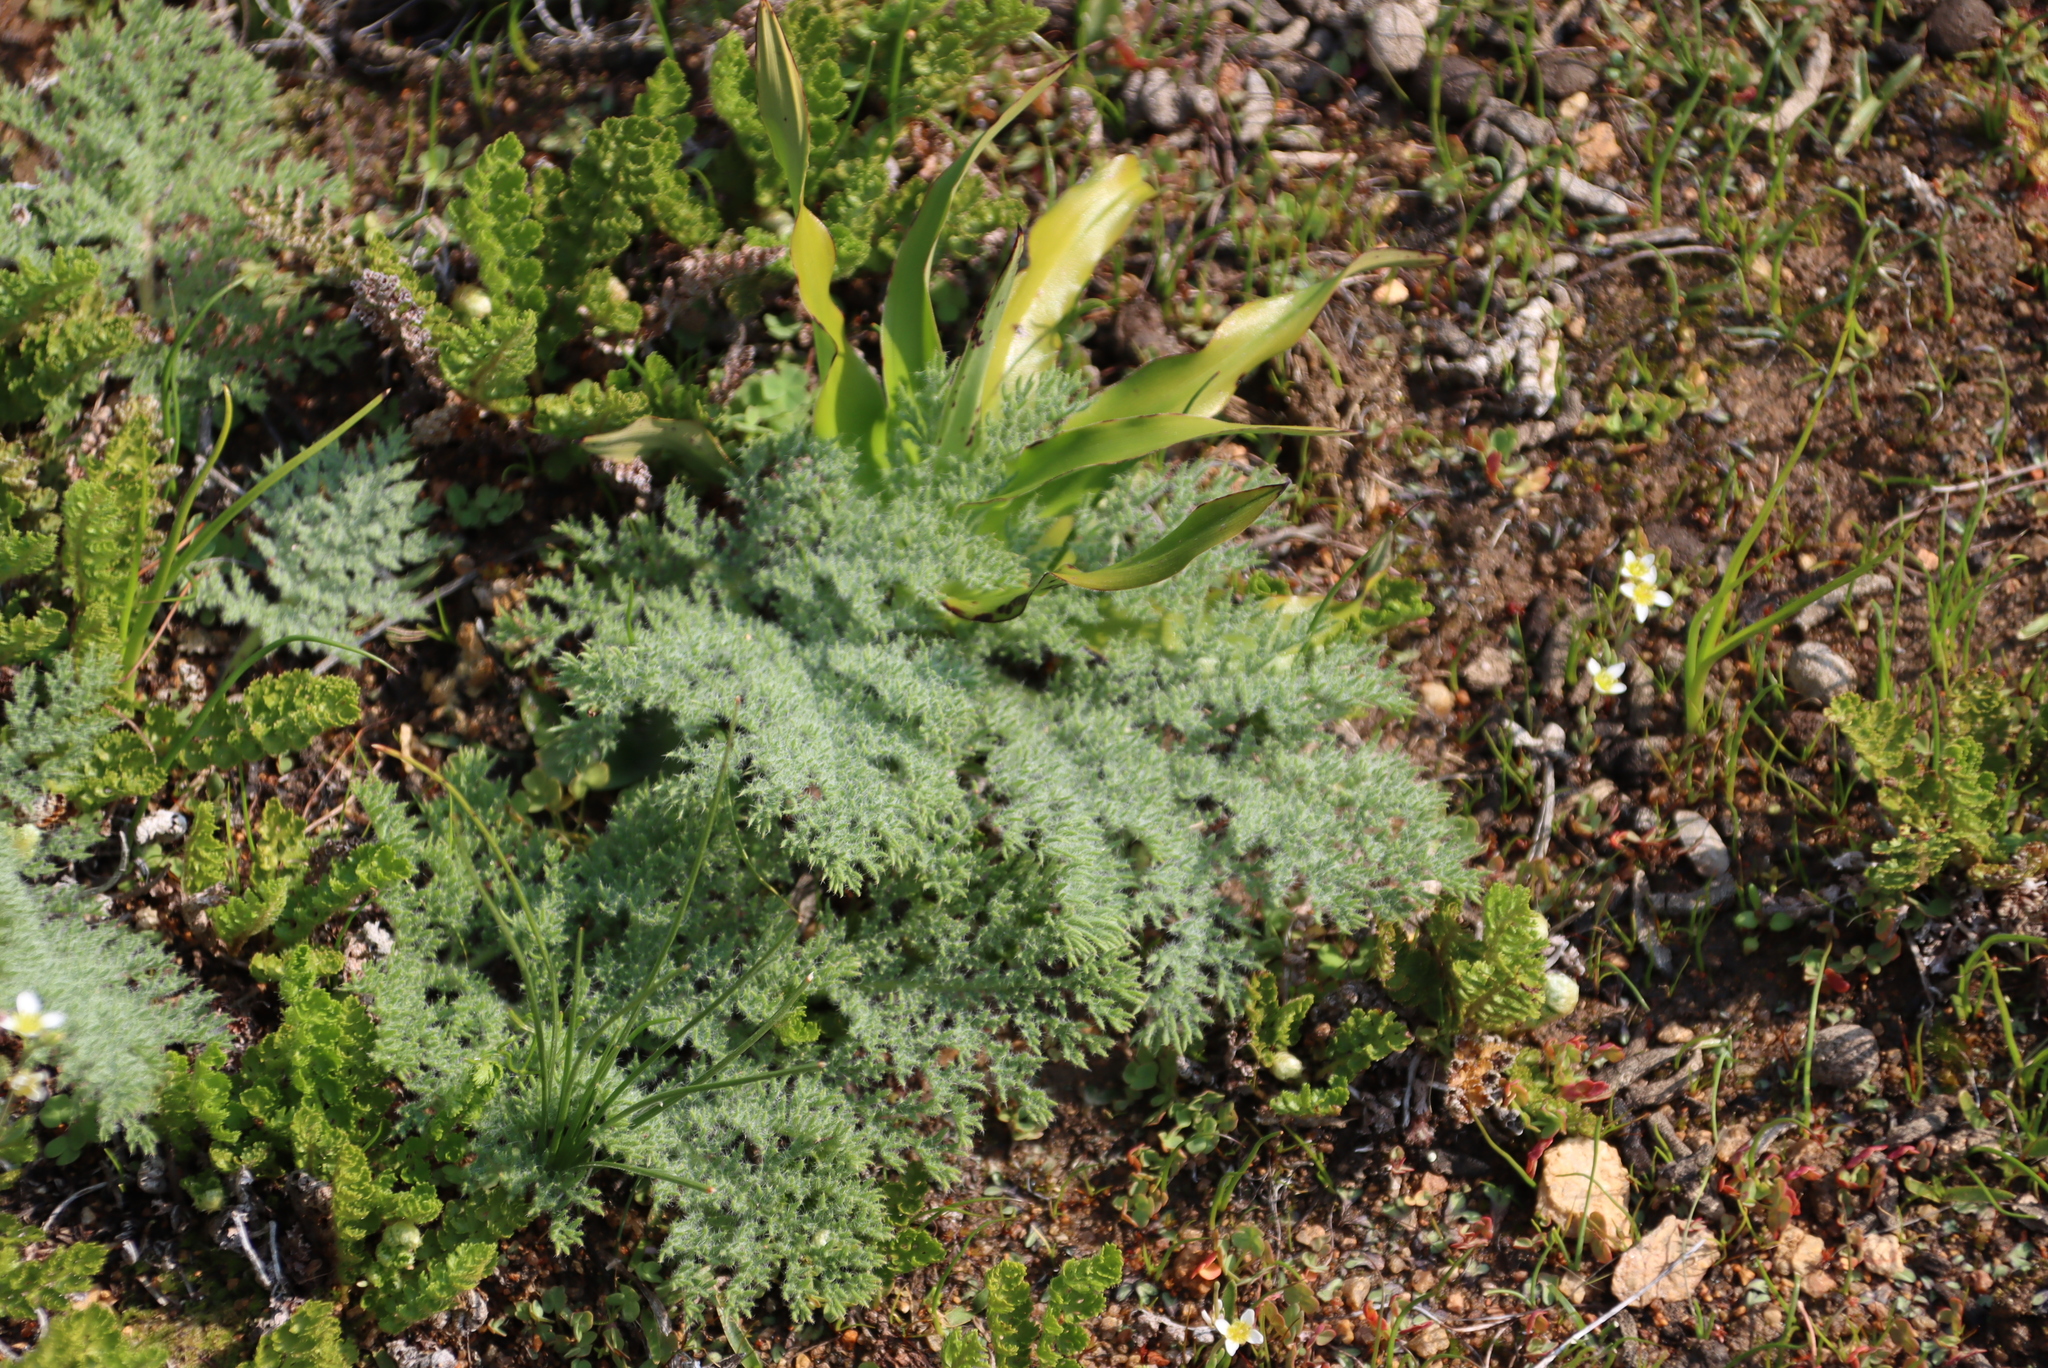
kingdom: Plantae
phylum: Tracheophyta
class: Magnoliopsida
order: Geraniales
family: Geraniaceae
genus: Pelargonium
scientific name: Pelargonium triste
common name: Night-scent pelargonium
